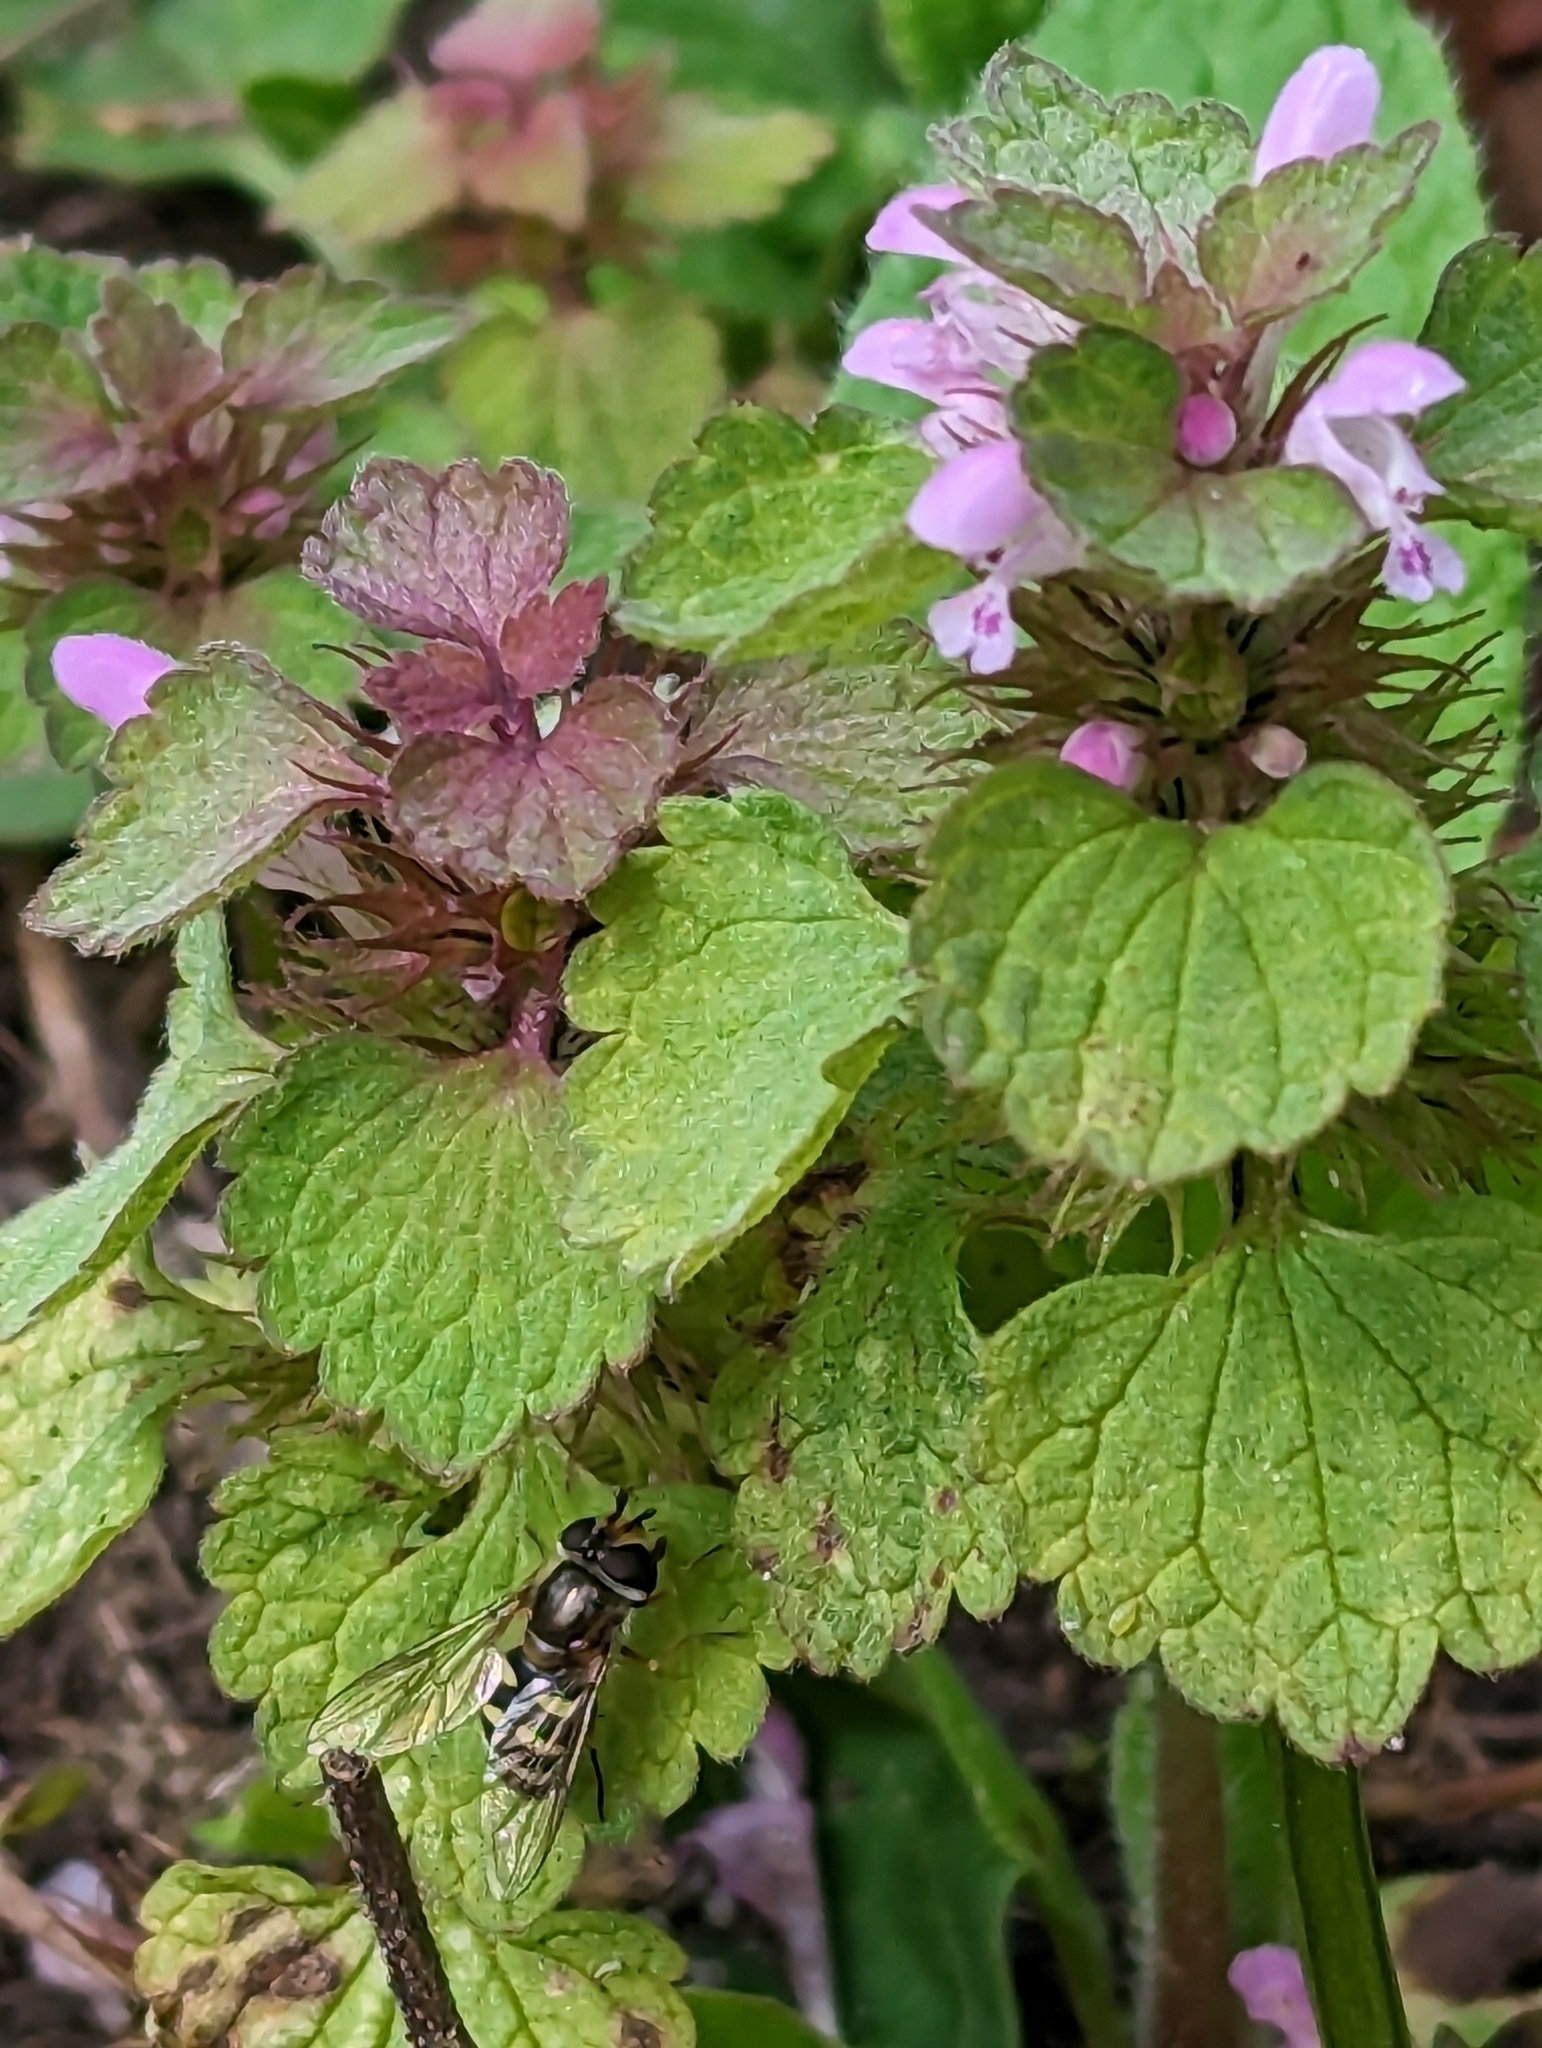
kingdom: Animalia
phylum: Arthropoda
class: Insecta
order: Diptera
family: Syrphidae
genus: Eupeodes
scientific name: Eupeodes
